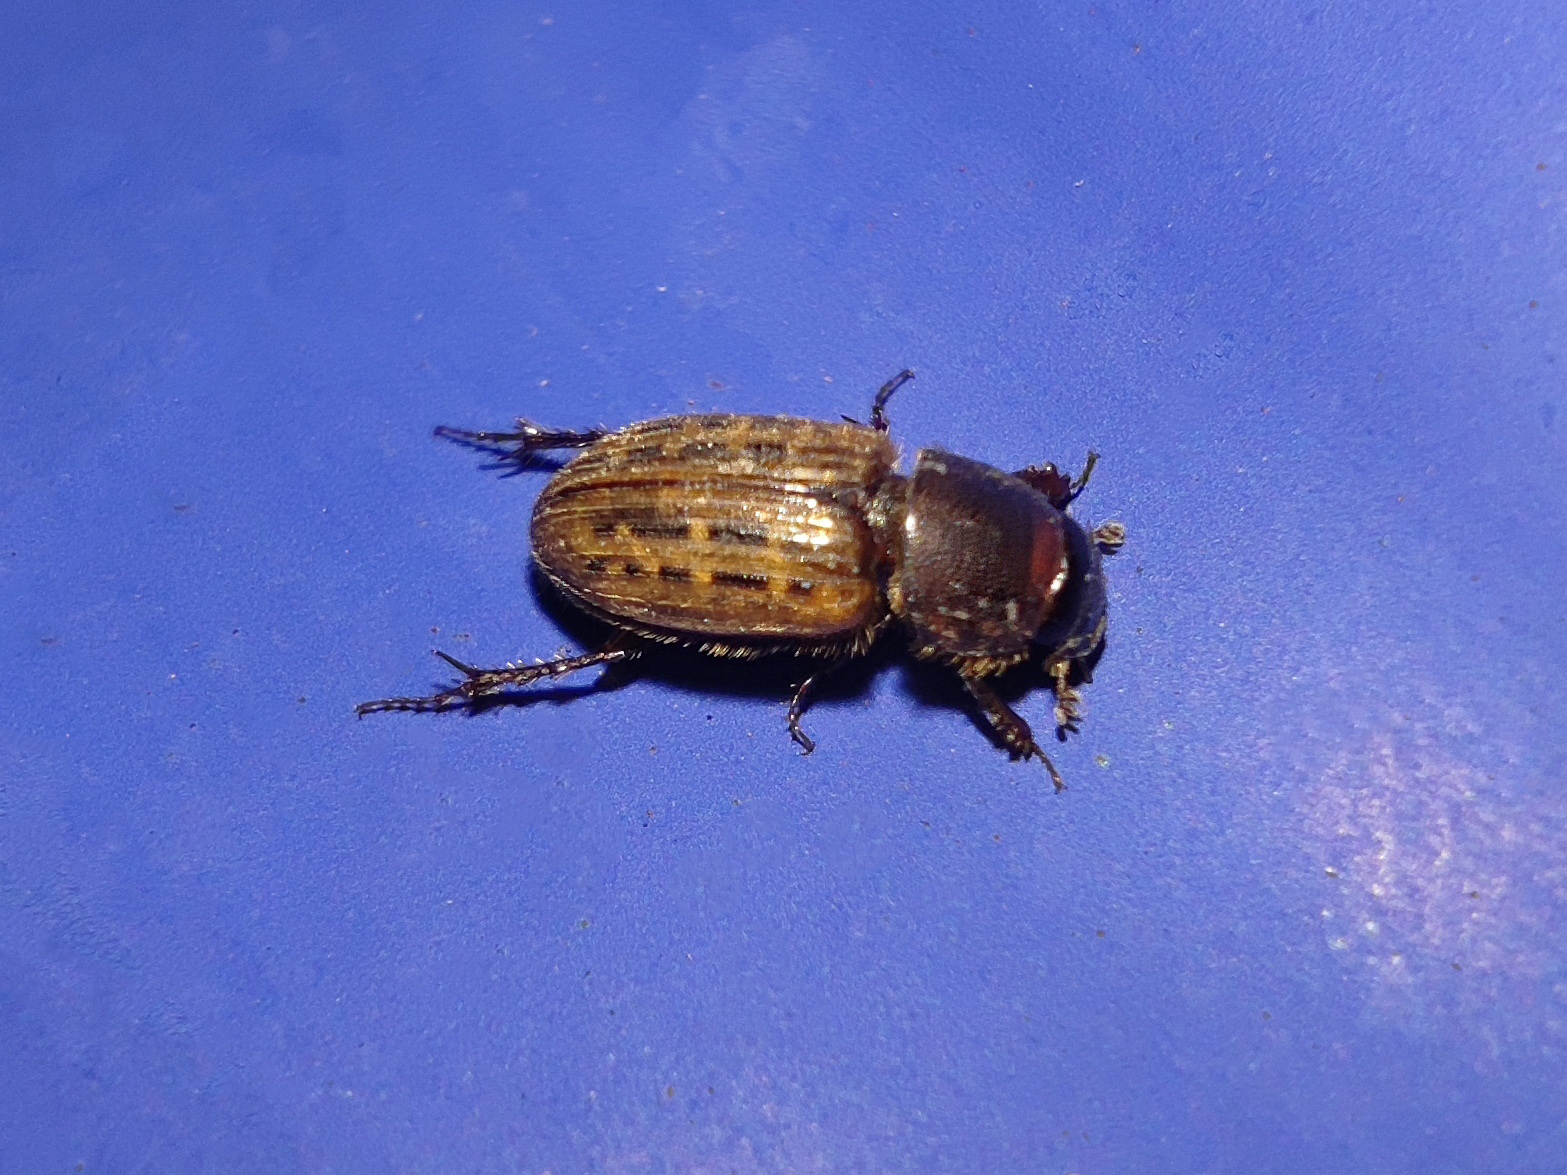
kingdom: Animalia
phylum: Arthropoda
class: Insecta
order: Coleoptera
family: Scarabaeidae
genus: Euheptaulacus
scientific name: Euheptaulacus sus
